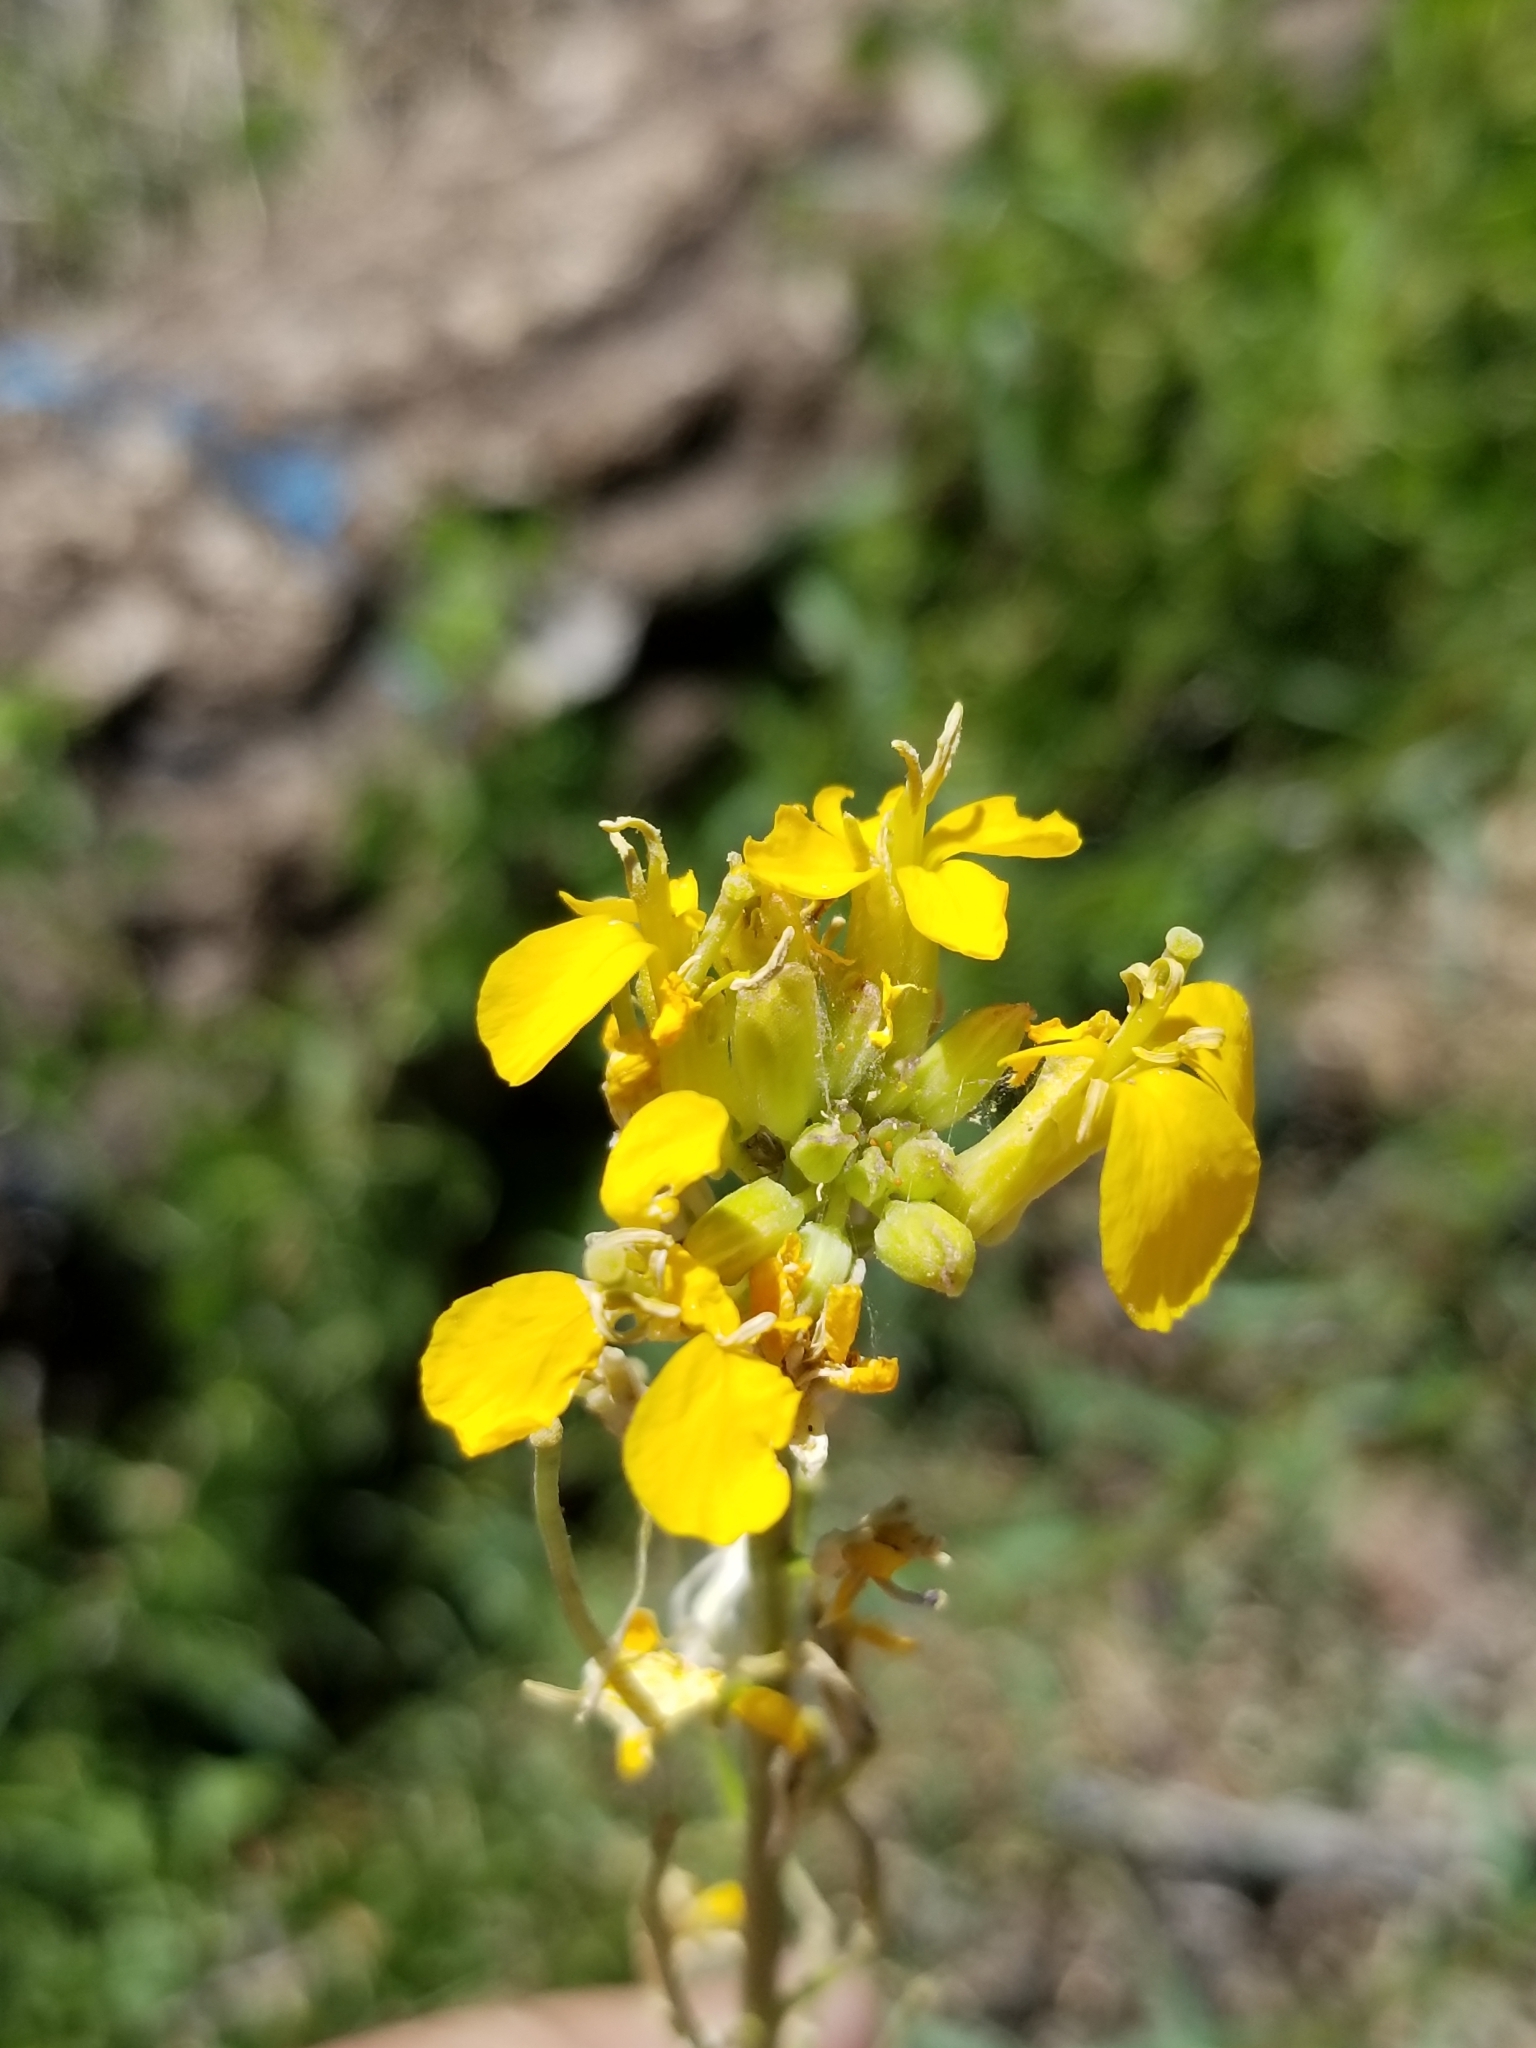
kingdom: Plantae
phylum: Tracheophyta
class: Magnoliopsida
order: Brassicales
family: Brassicaceae
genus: Erysimum
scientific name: Erysimum capitatum
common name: Western wallflower
